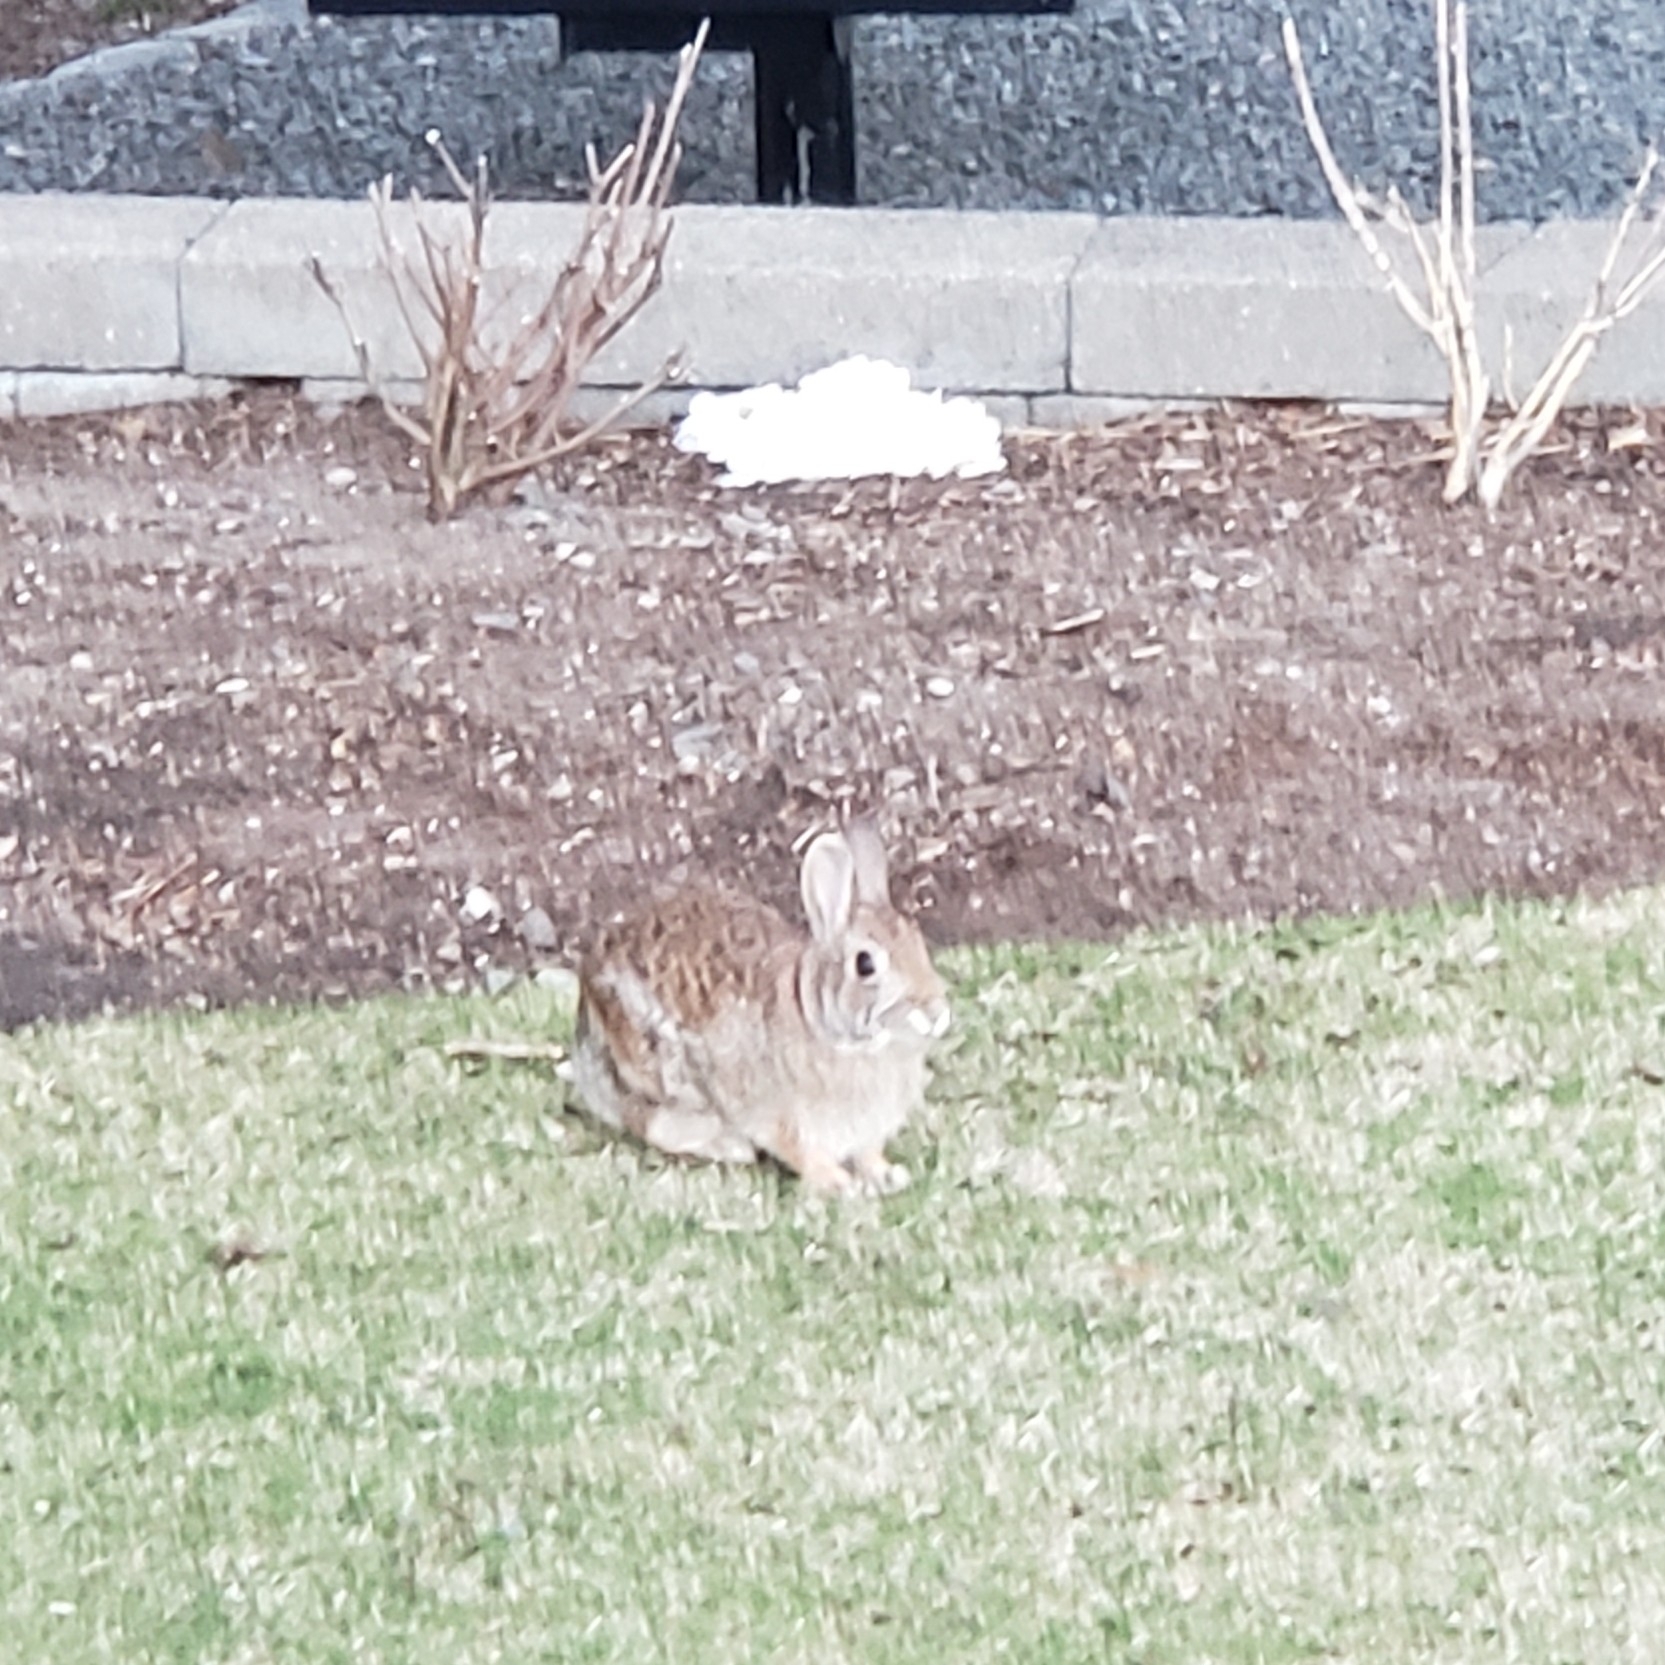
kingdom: Animalia
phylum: Chordata
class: Mammalia
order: Lagomorpha
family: Leporidae
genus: Sylvilagus
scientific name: Sylvilagus floridanus
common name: Eastern cottontail
